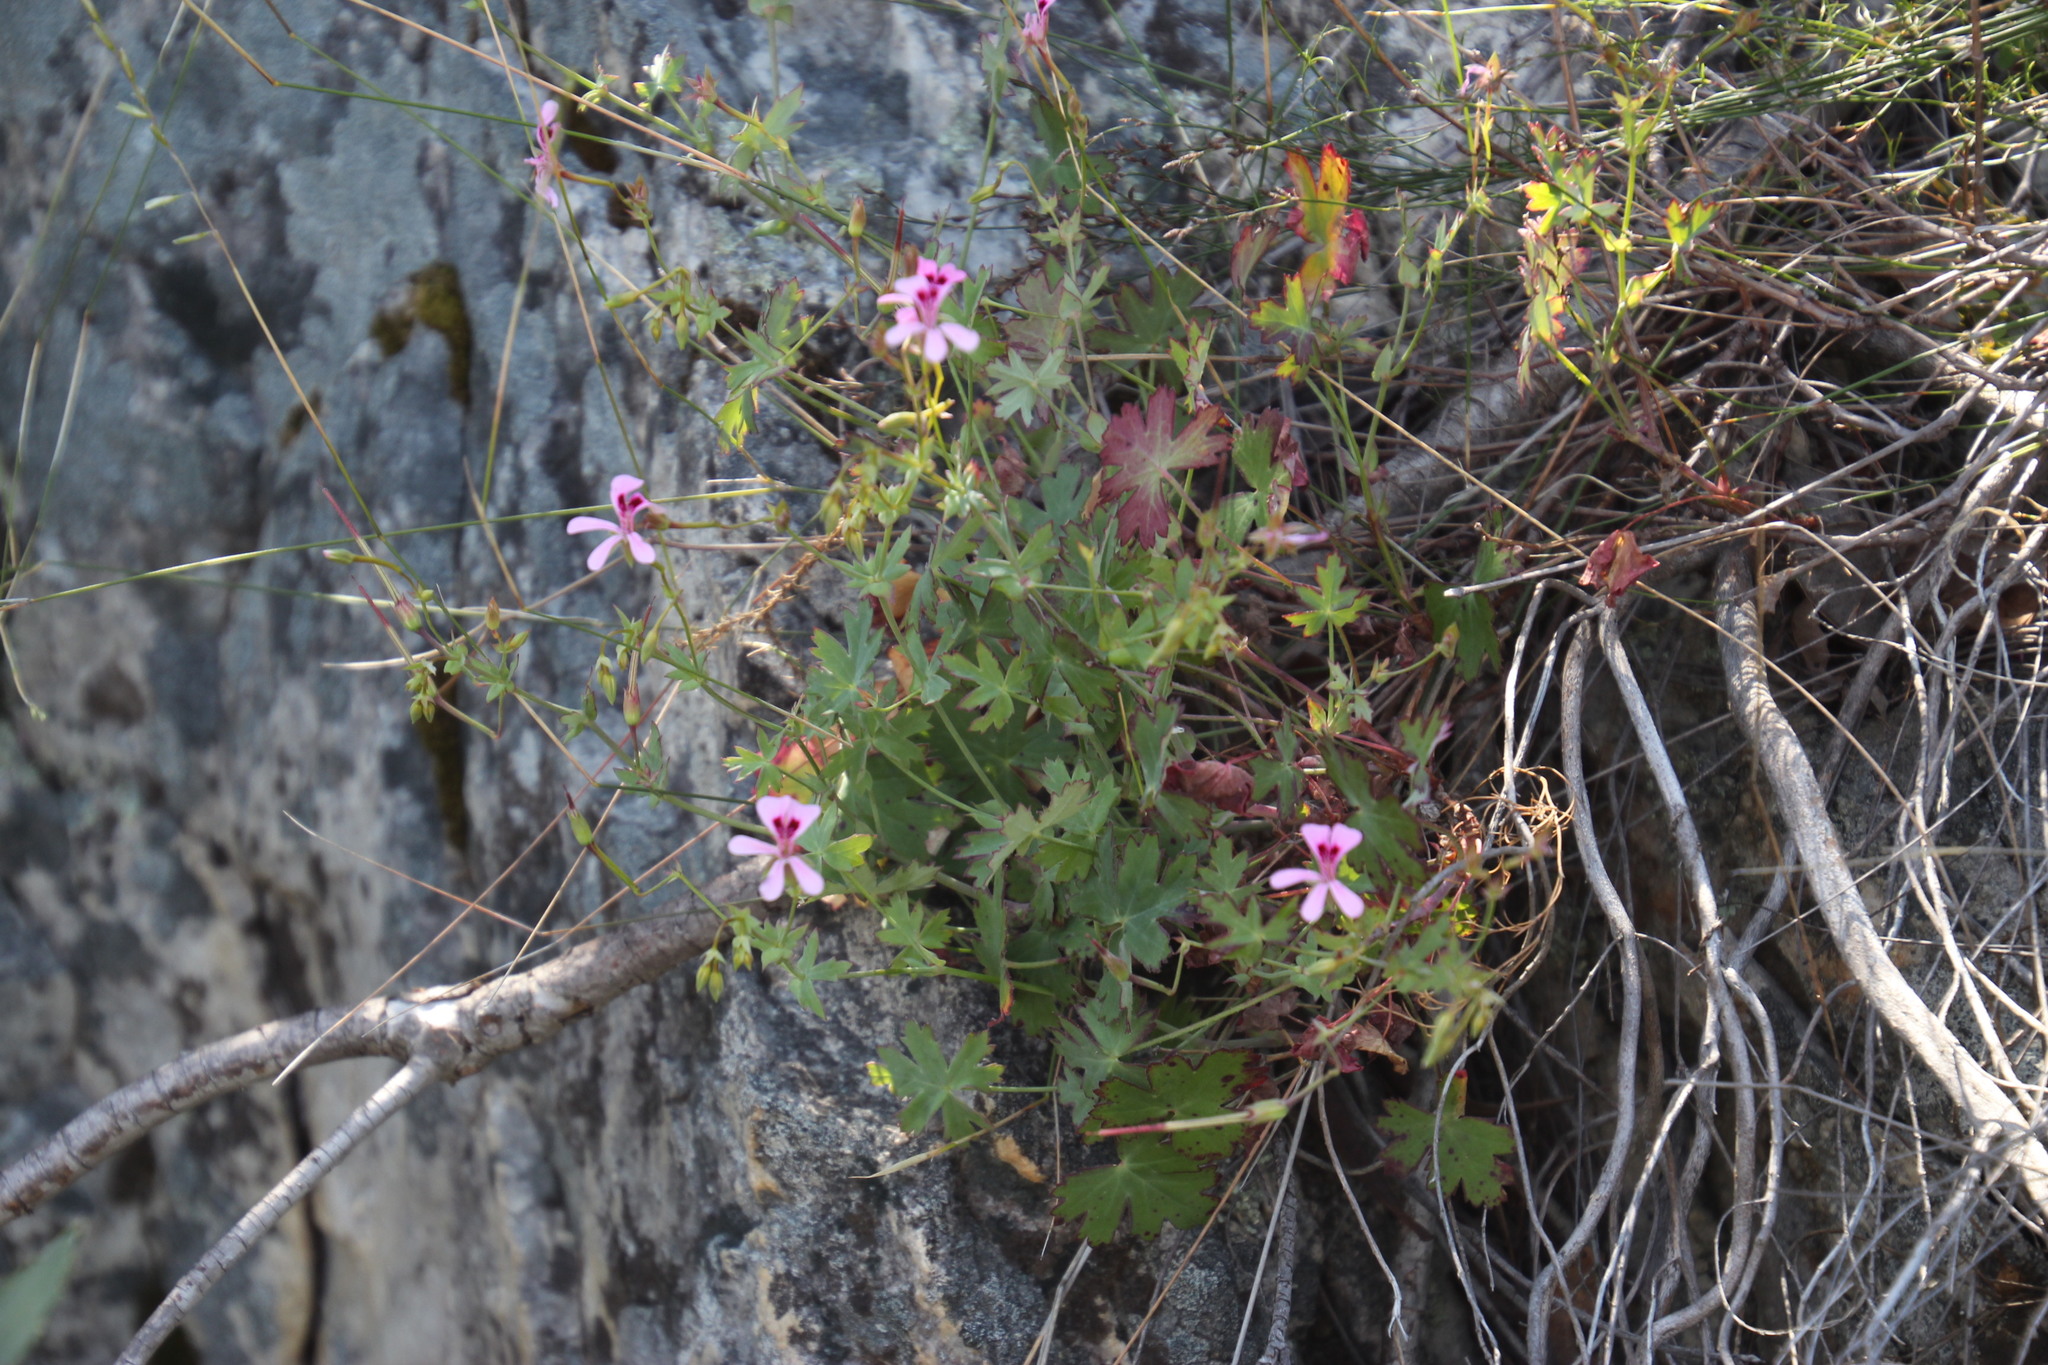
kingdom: Plantae
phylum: Tracheophyta
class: Magnoliopsida
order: Geraniales
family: Geraniaceae
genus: Pelargonium
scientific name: Pelargonium patulum
